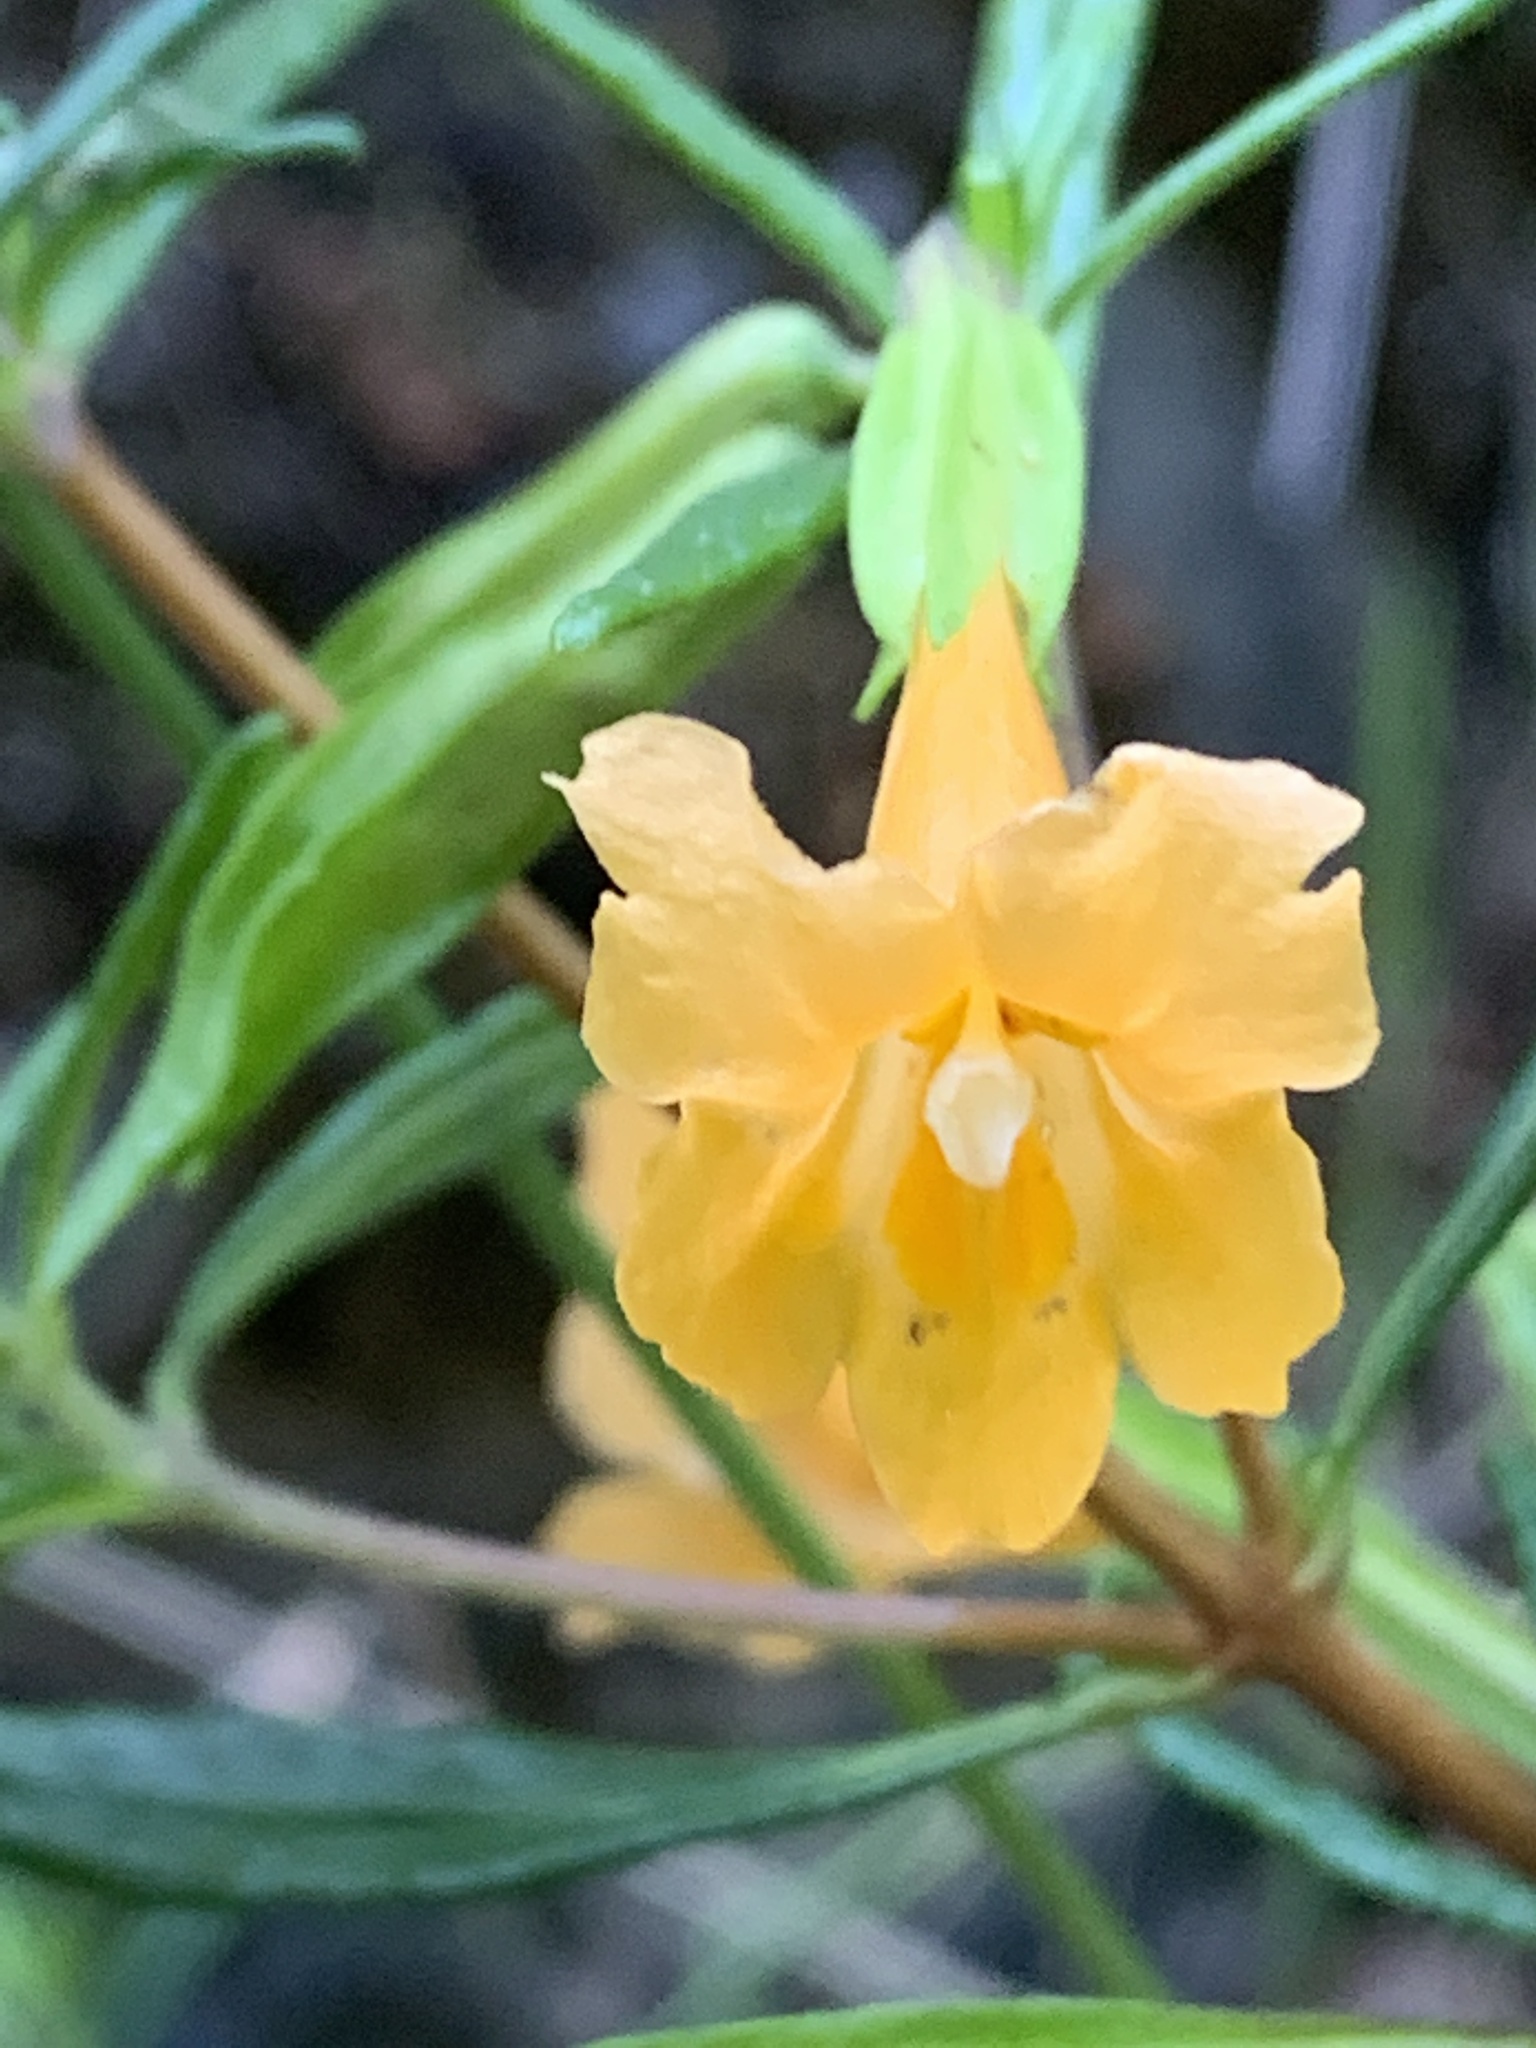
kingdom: Plantae
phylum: Tracheophyta
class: Magnoliopsida
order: Lamiales
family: Phrymaceae
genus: Diplacus
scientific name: Diplacus aurantiacus
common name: Bush monkey-flower
